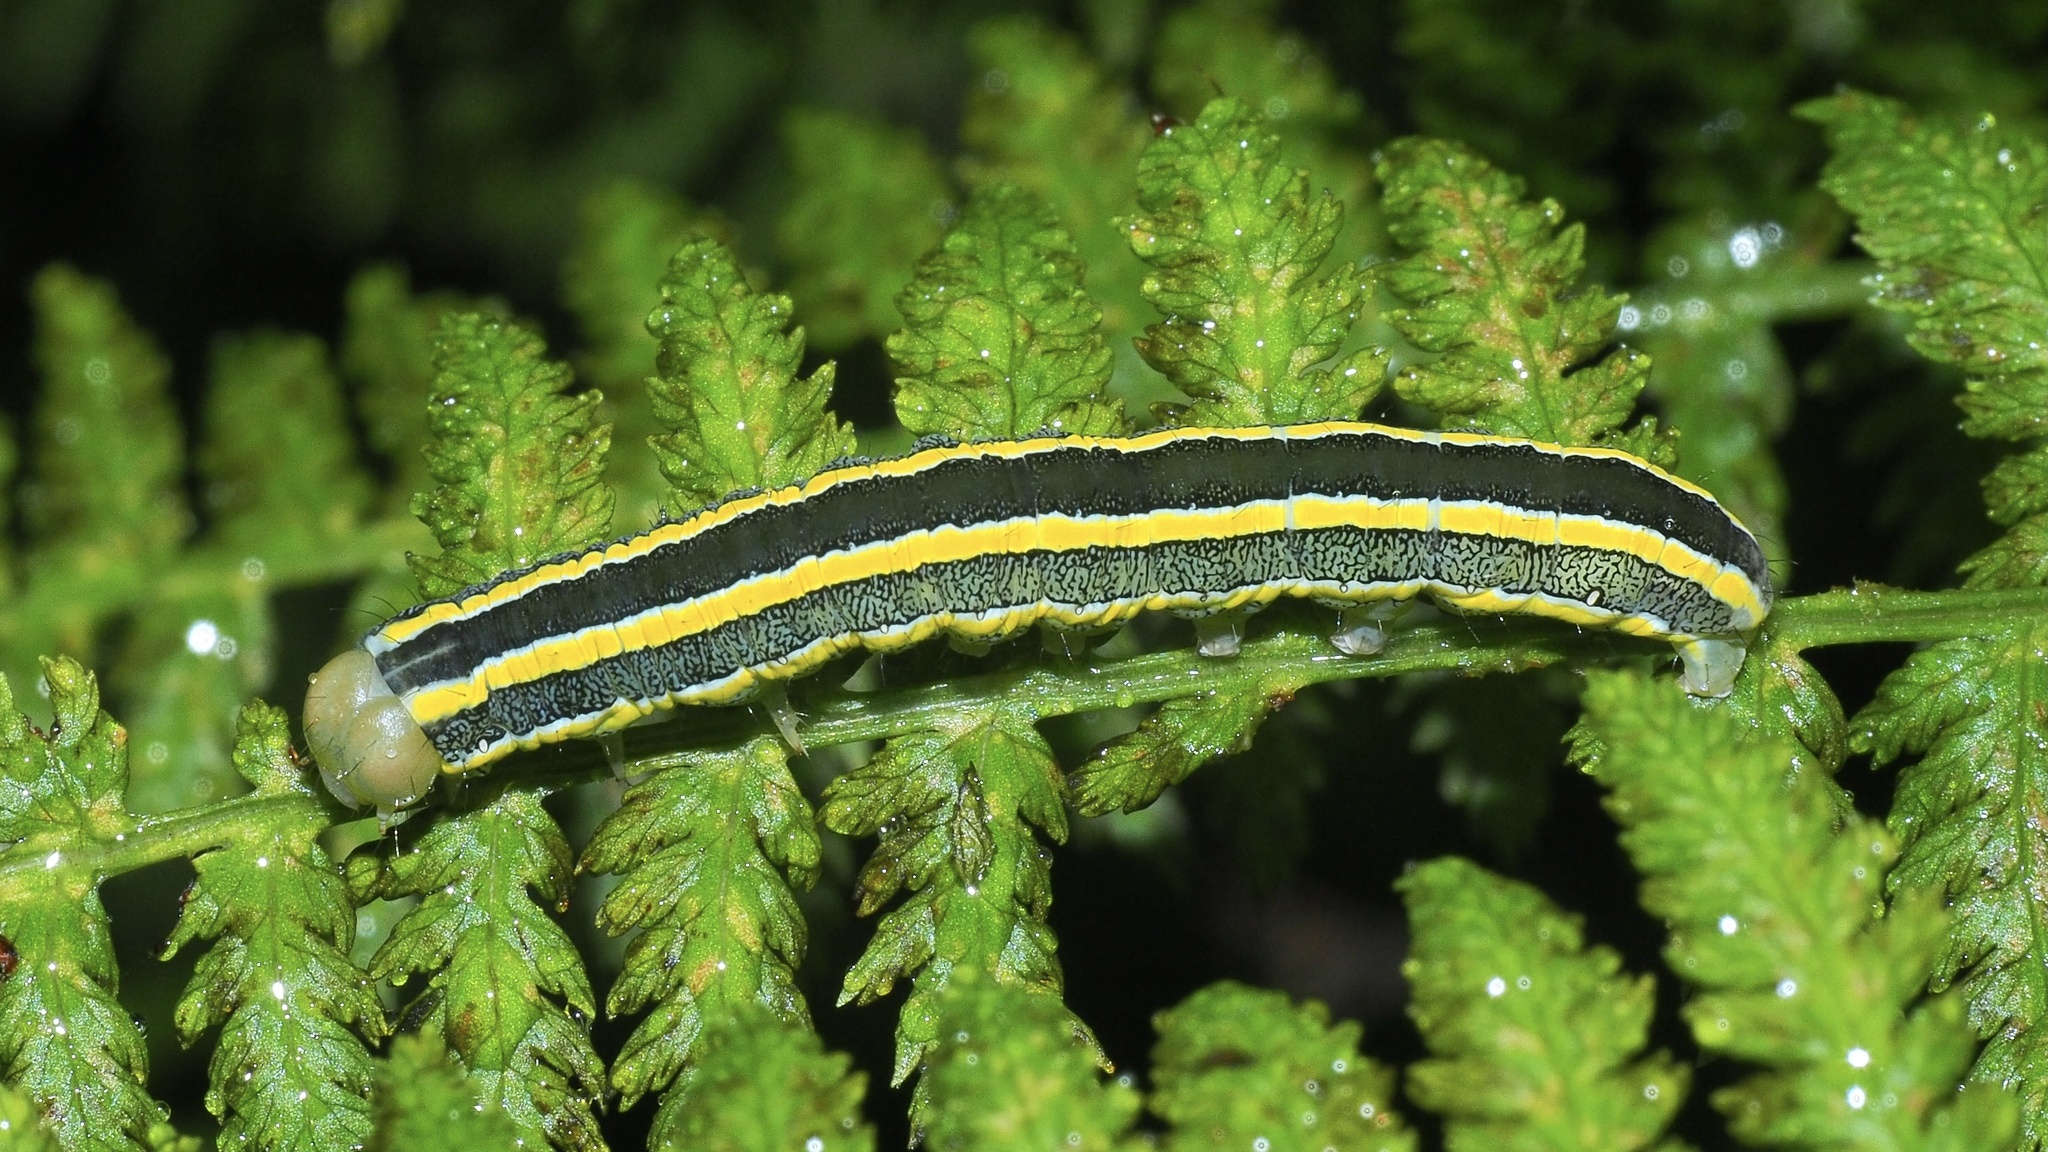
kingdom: Animalia
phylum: Arthropoda
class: Insecta
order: Lepidoptera
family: Noctuidae
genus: Ceramica
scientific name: Ceramica pisi
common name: Broom moth
